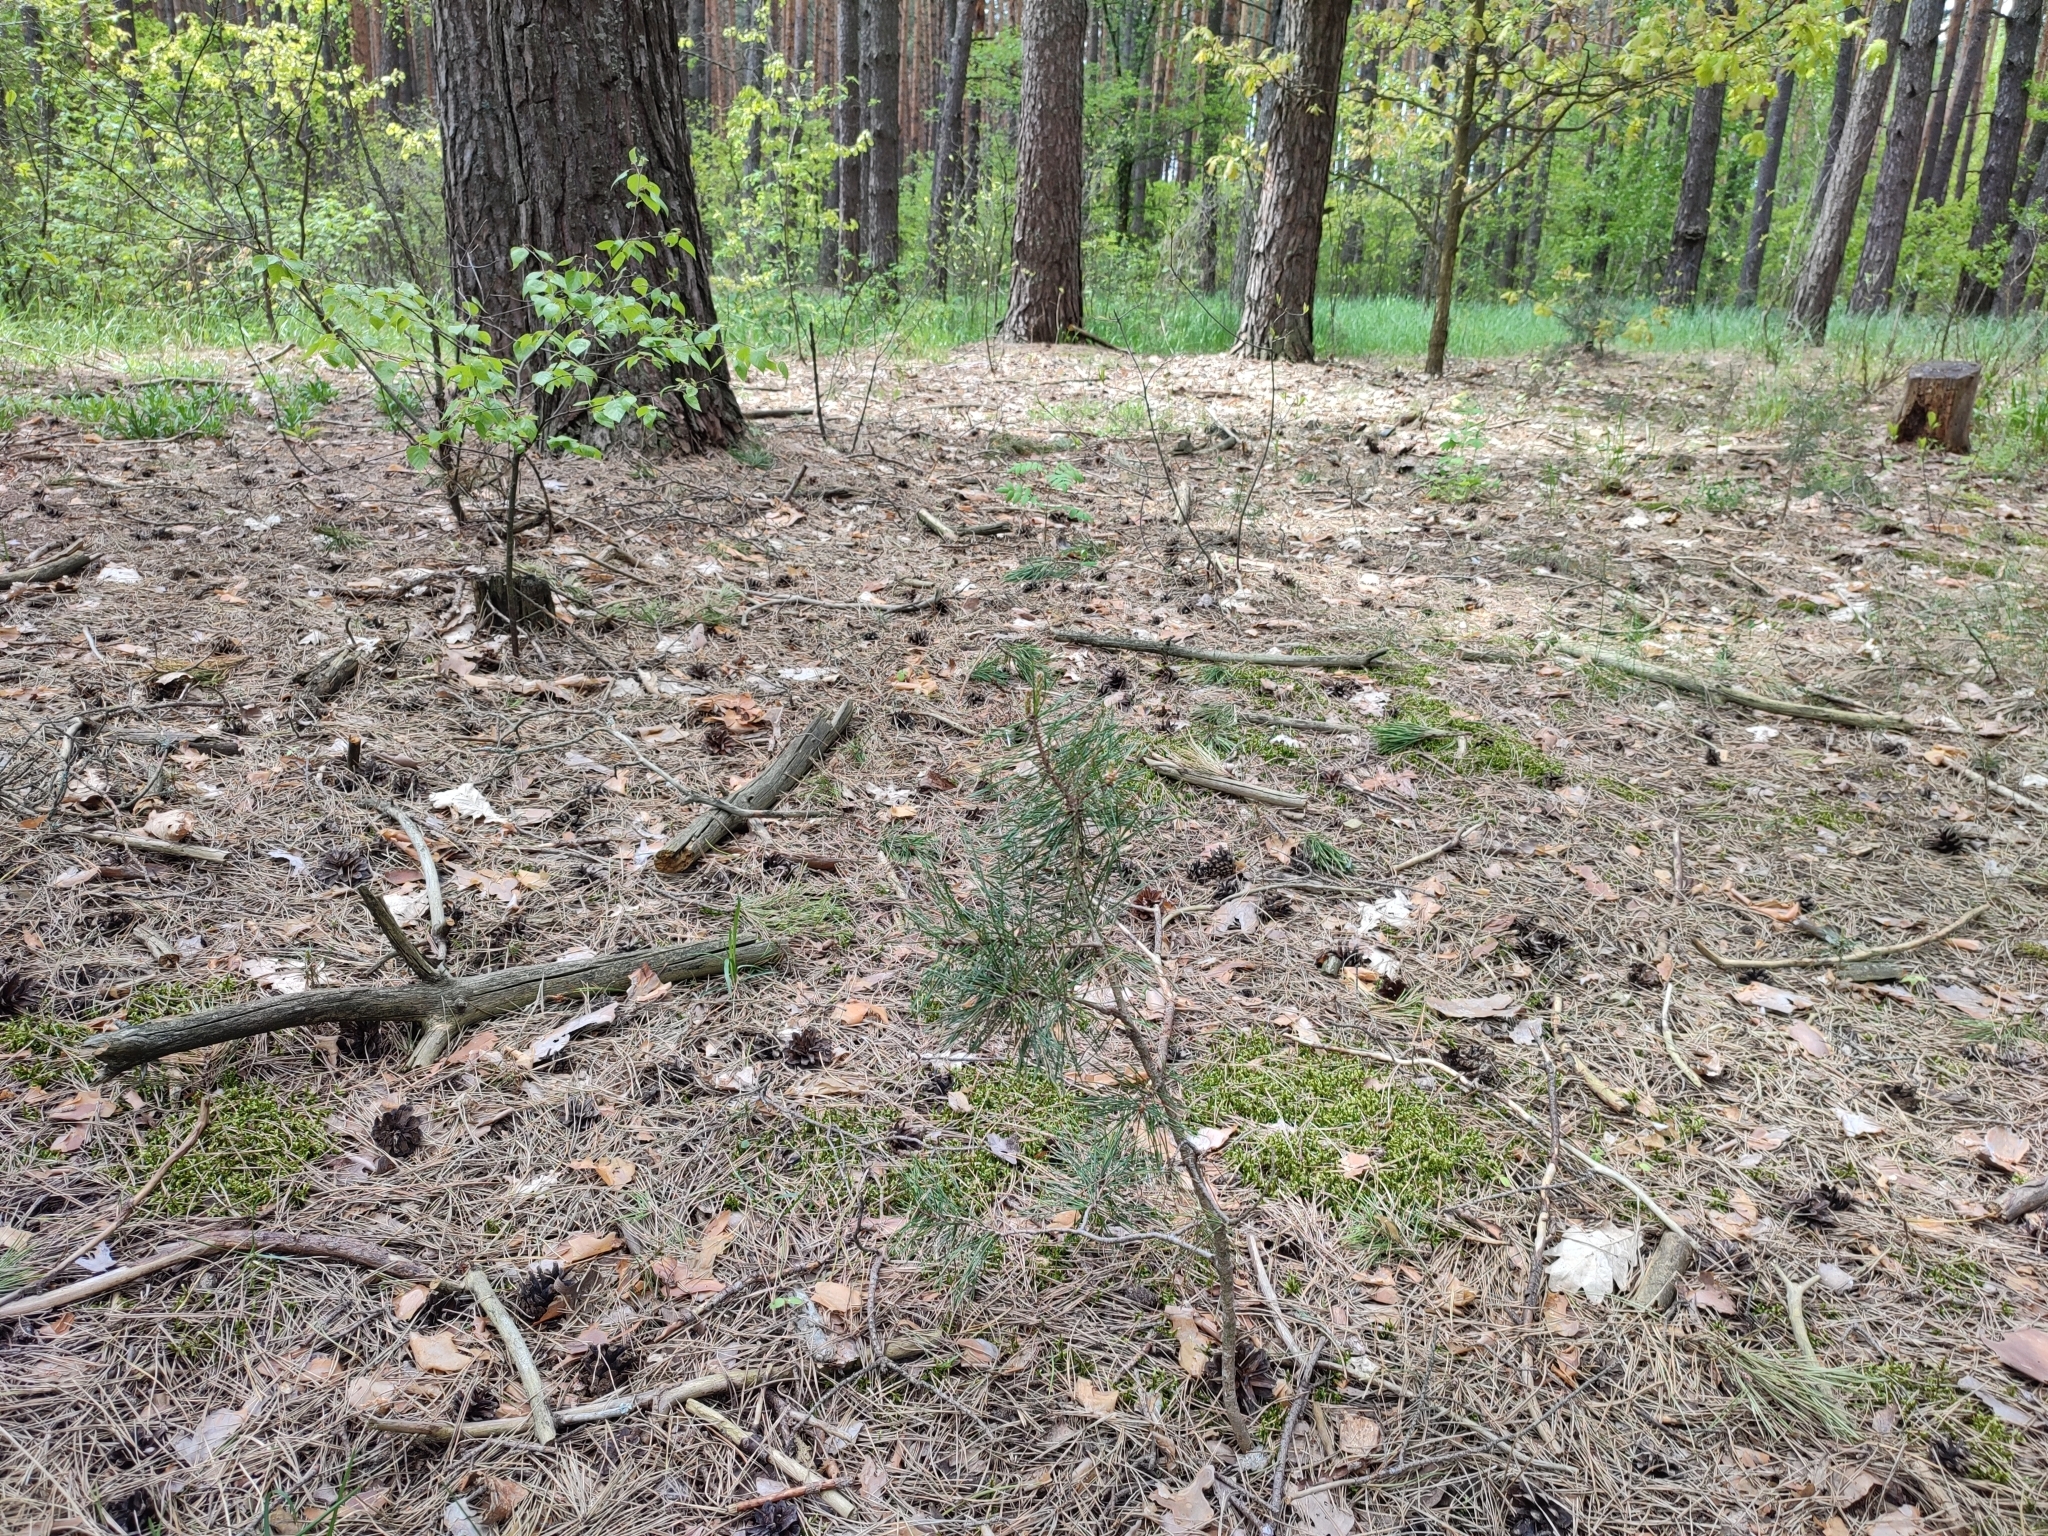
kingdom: Plantae
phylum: Tracheophyta
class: Pinopsida
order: Pinales
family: Pinaceae
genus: Pinus
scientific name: Pinus sylvestris
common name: Scots pine
